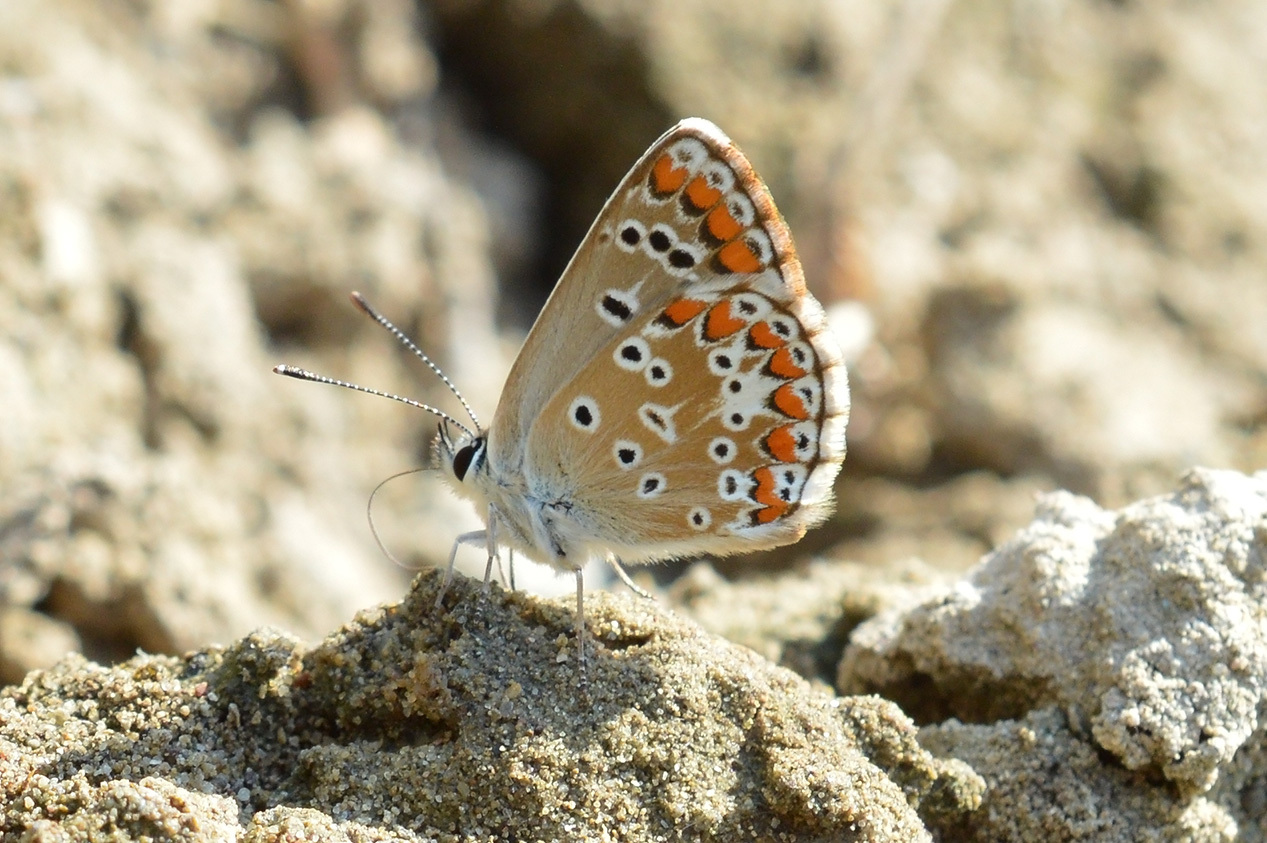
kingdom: Animalia
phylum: Arthropoda
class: Insecta
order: Lepidoptera
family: Lycaenidae
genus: Aricia
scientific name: Aricia agestis
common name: Brown argus
